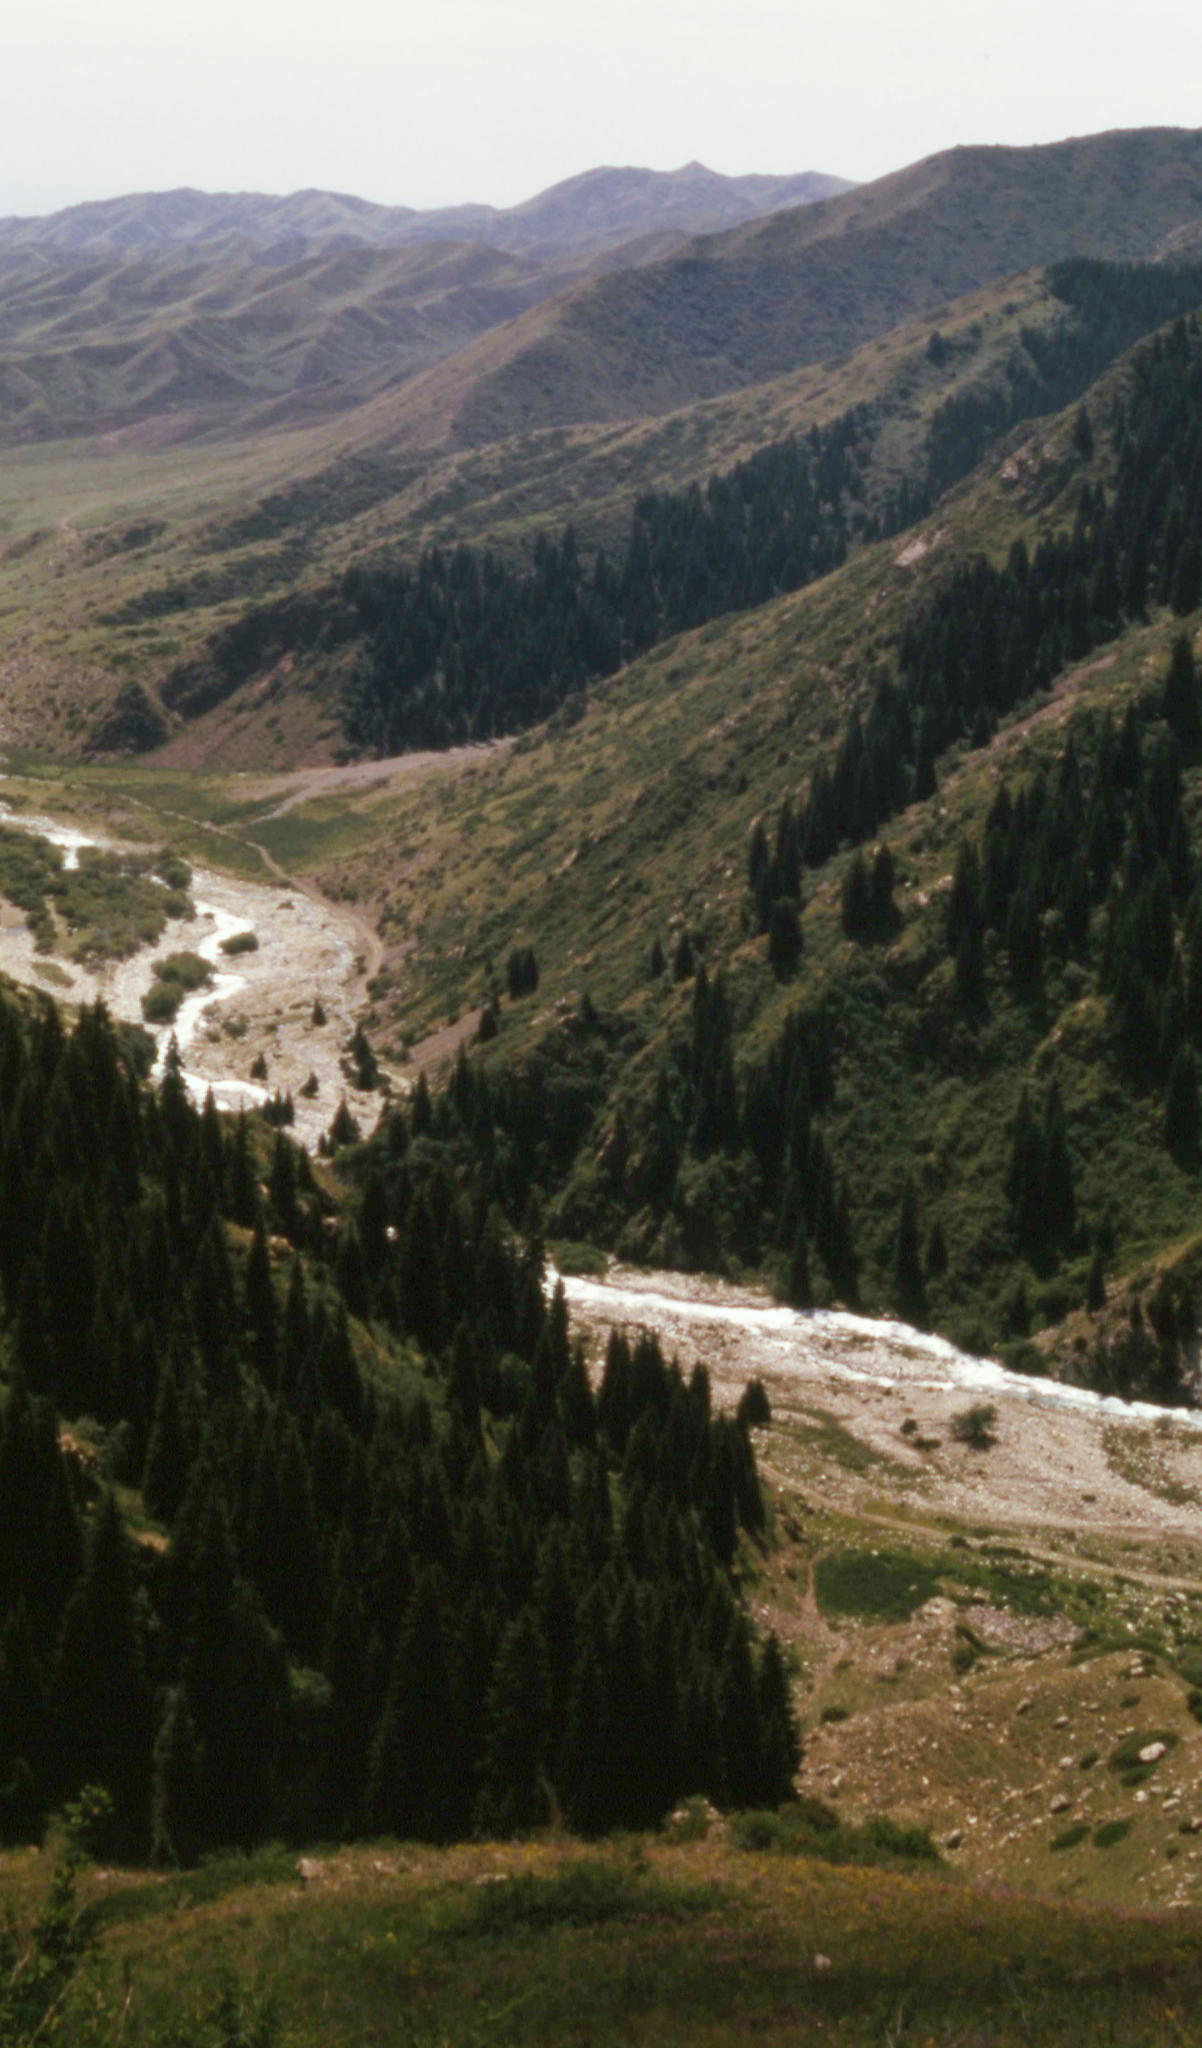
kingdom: Plantae
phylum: Tracheophyta
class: Pinopsida
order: Pinales
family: Pinaceae
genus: Picea
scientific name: Picea schrenkiana
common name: Asian spruce
